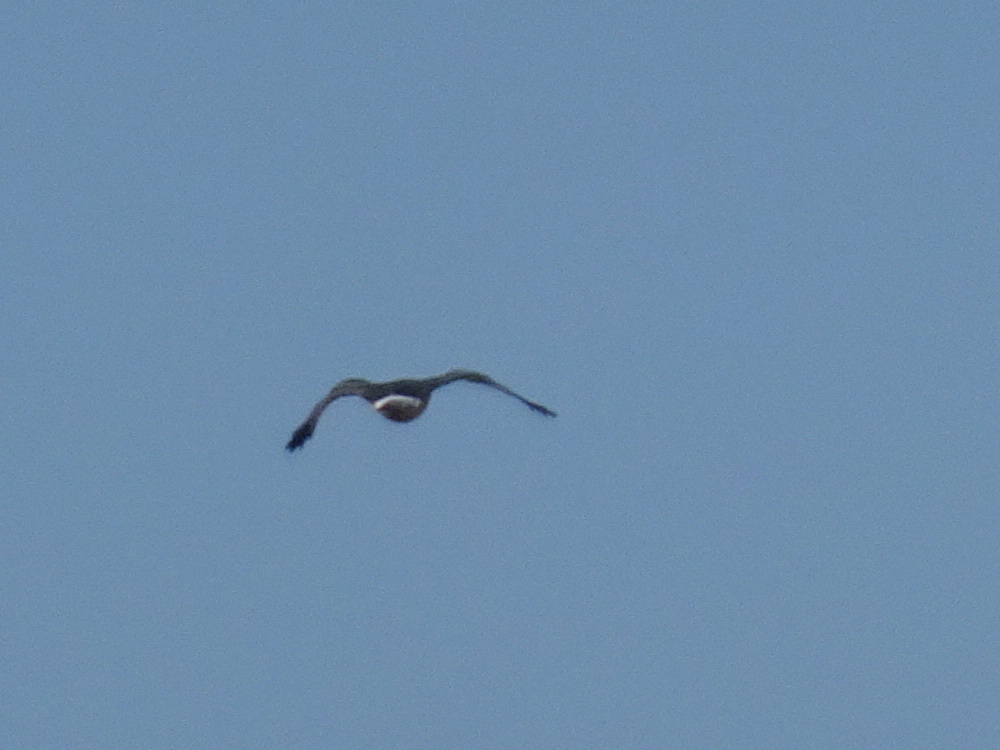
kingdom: Animalia
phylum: Chordata
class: Aves
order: Accipitriformes
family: Accipitridae
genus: Circus
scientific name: Circus cyaneus
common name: Hen harrier
